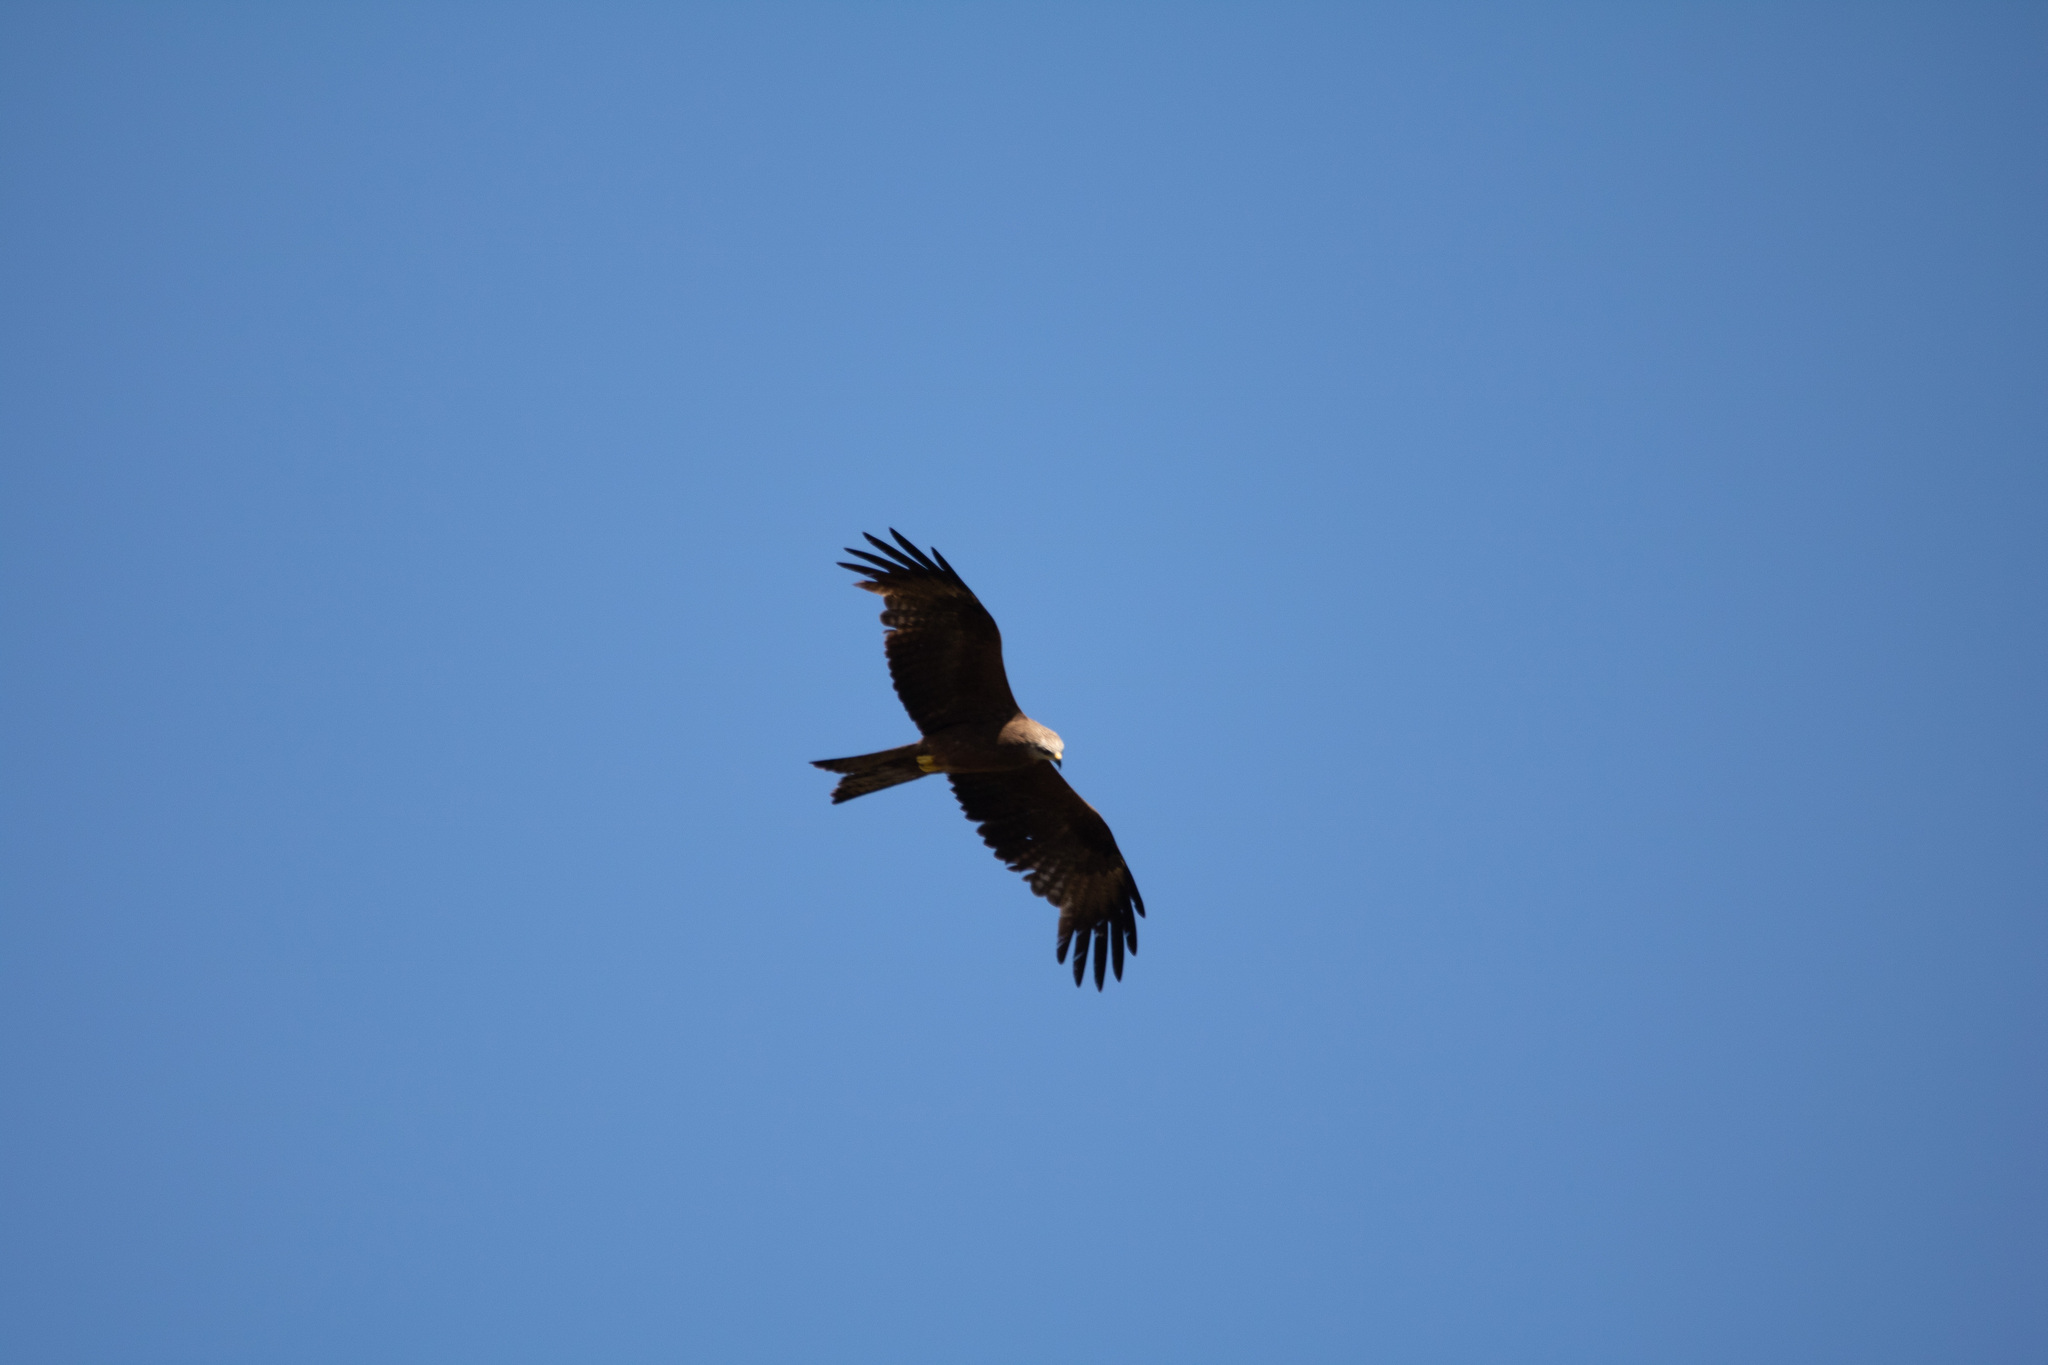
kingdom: Animalia
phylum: Chordata
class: Aves
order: Accipitriformes
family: Accipitridae
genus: Milvus
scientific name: Milvus migrans
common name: Black kite
